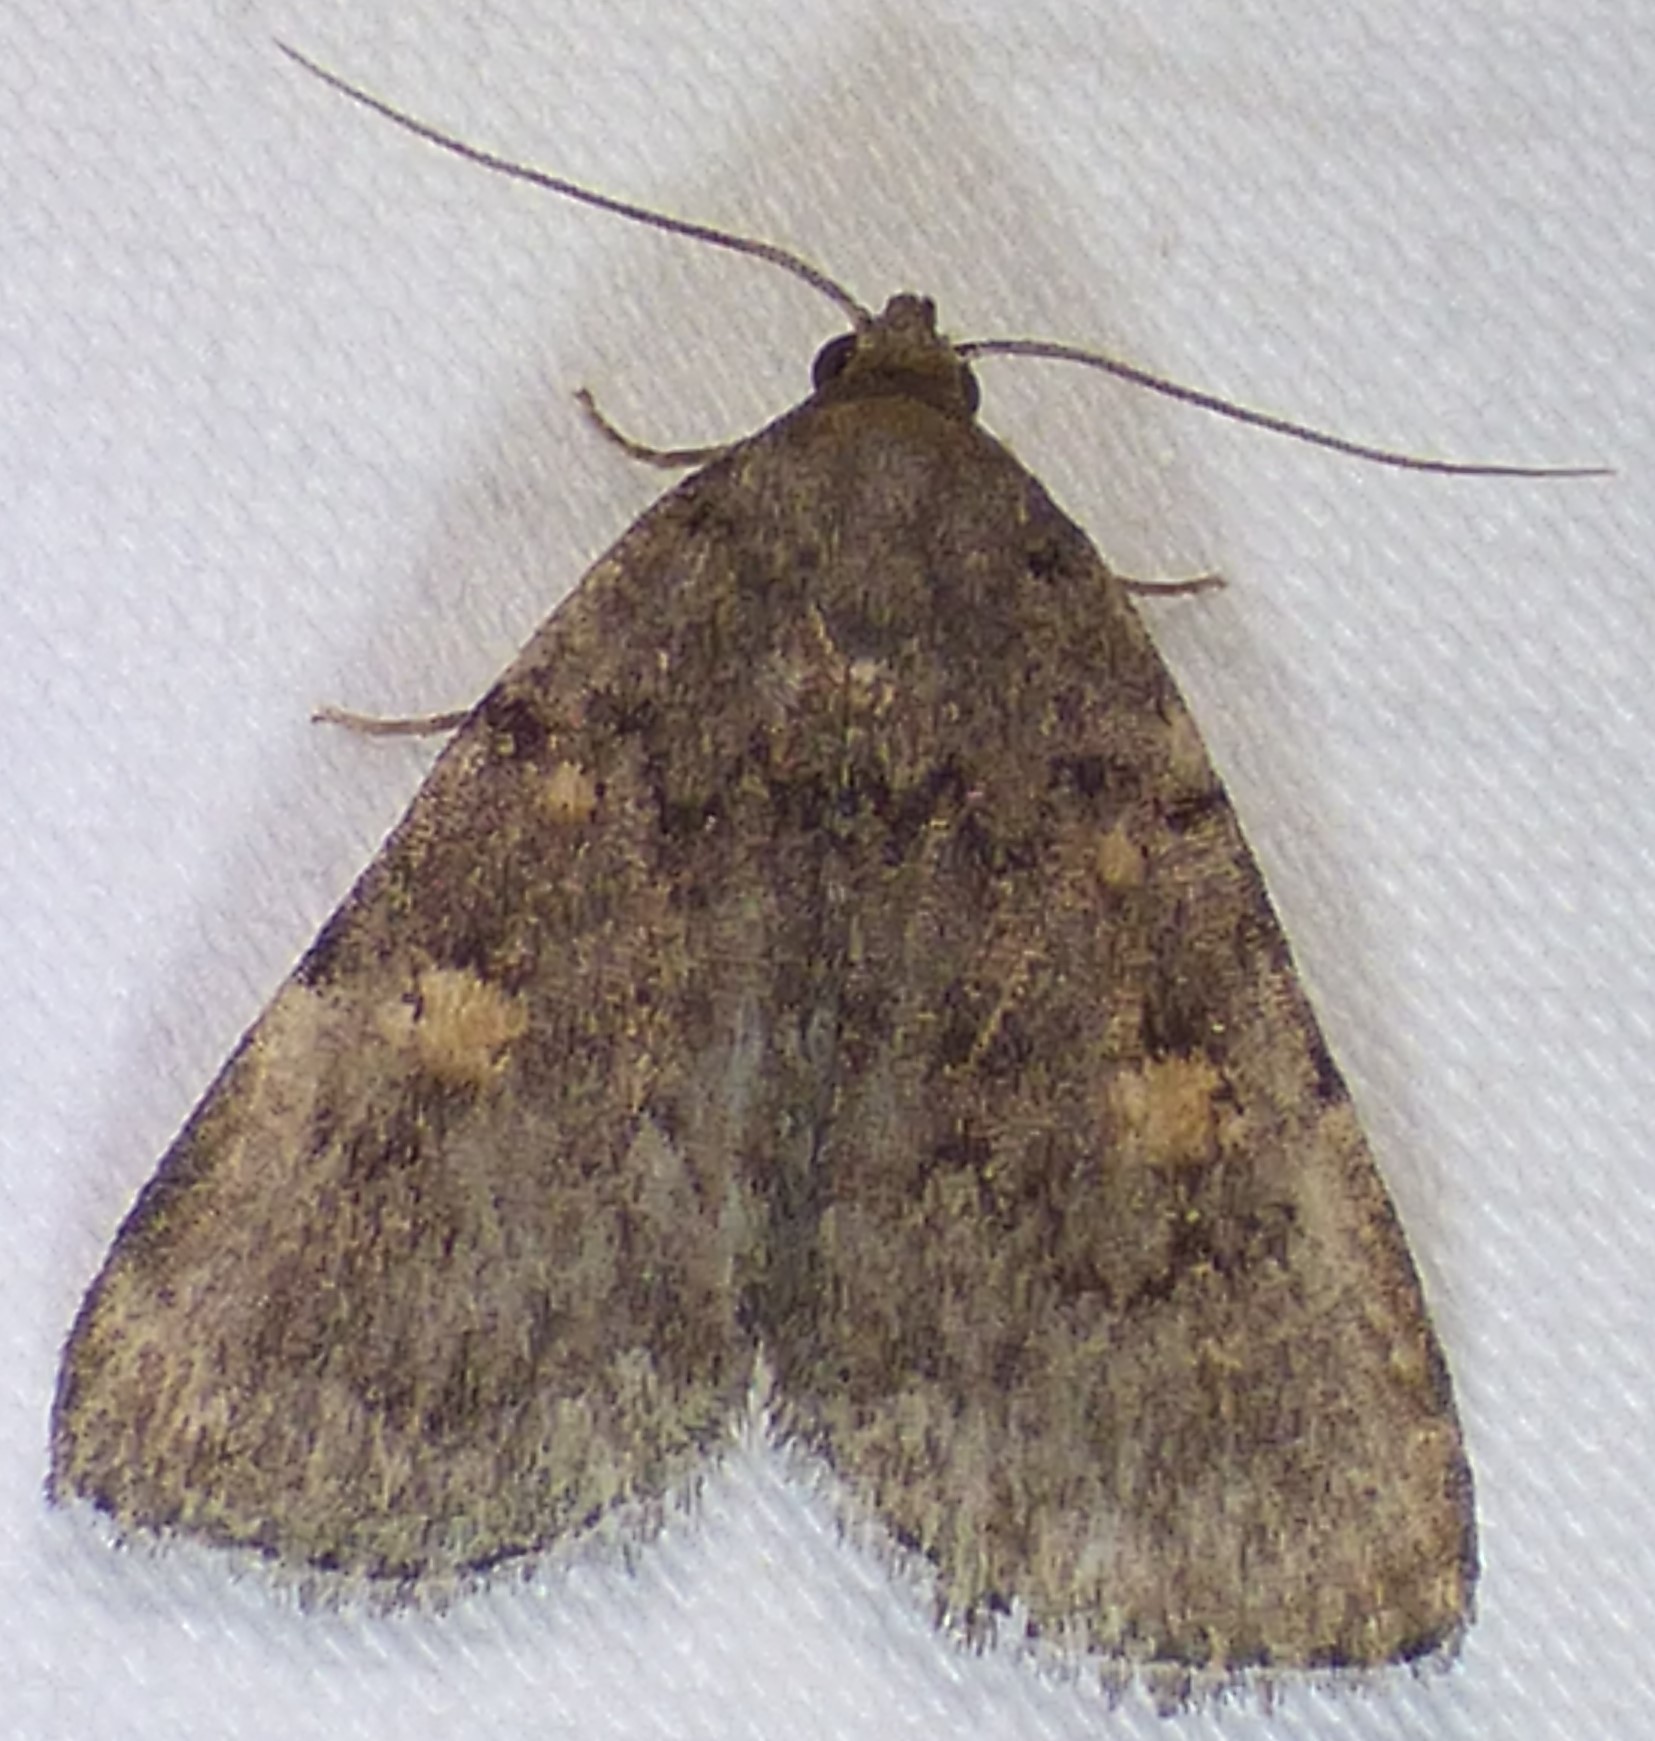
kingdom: Animalia
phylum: Arthropoda
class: Insecta
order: Lepidoptera
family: Erebidae
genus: Idia
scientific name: Idia aemula
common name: Common idia moth
